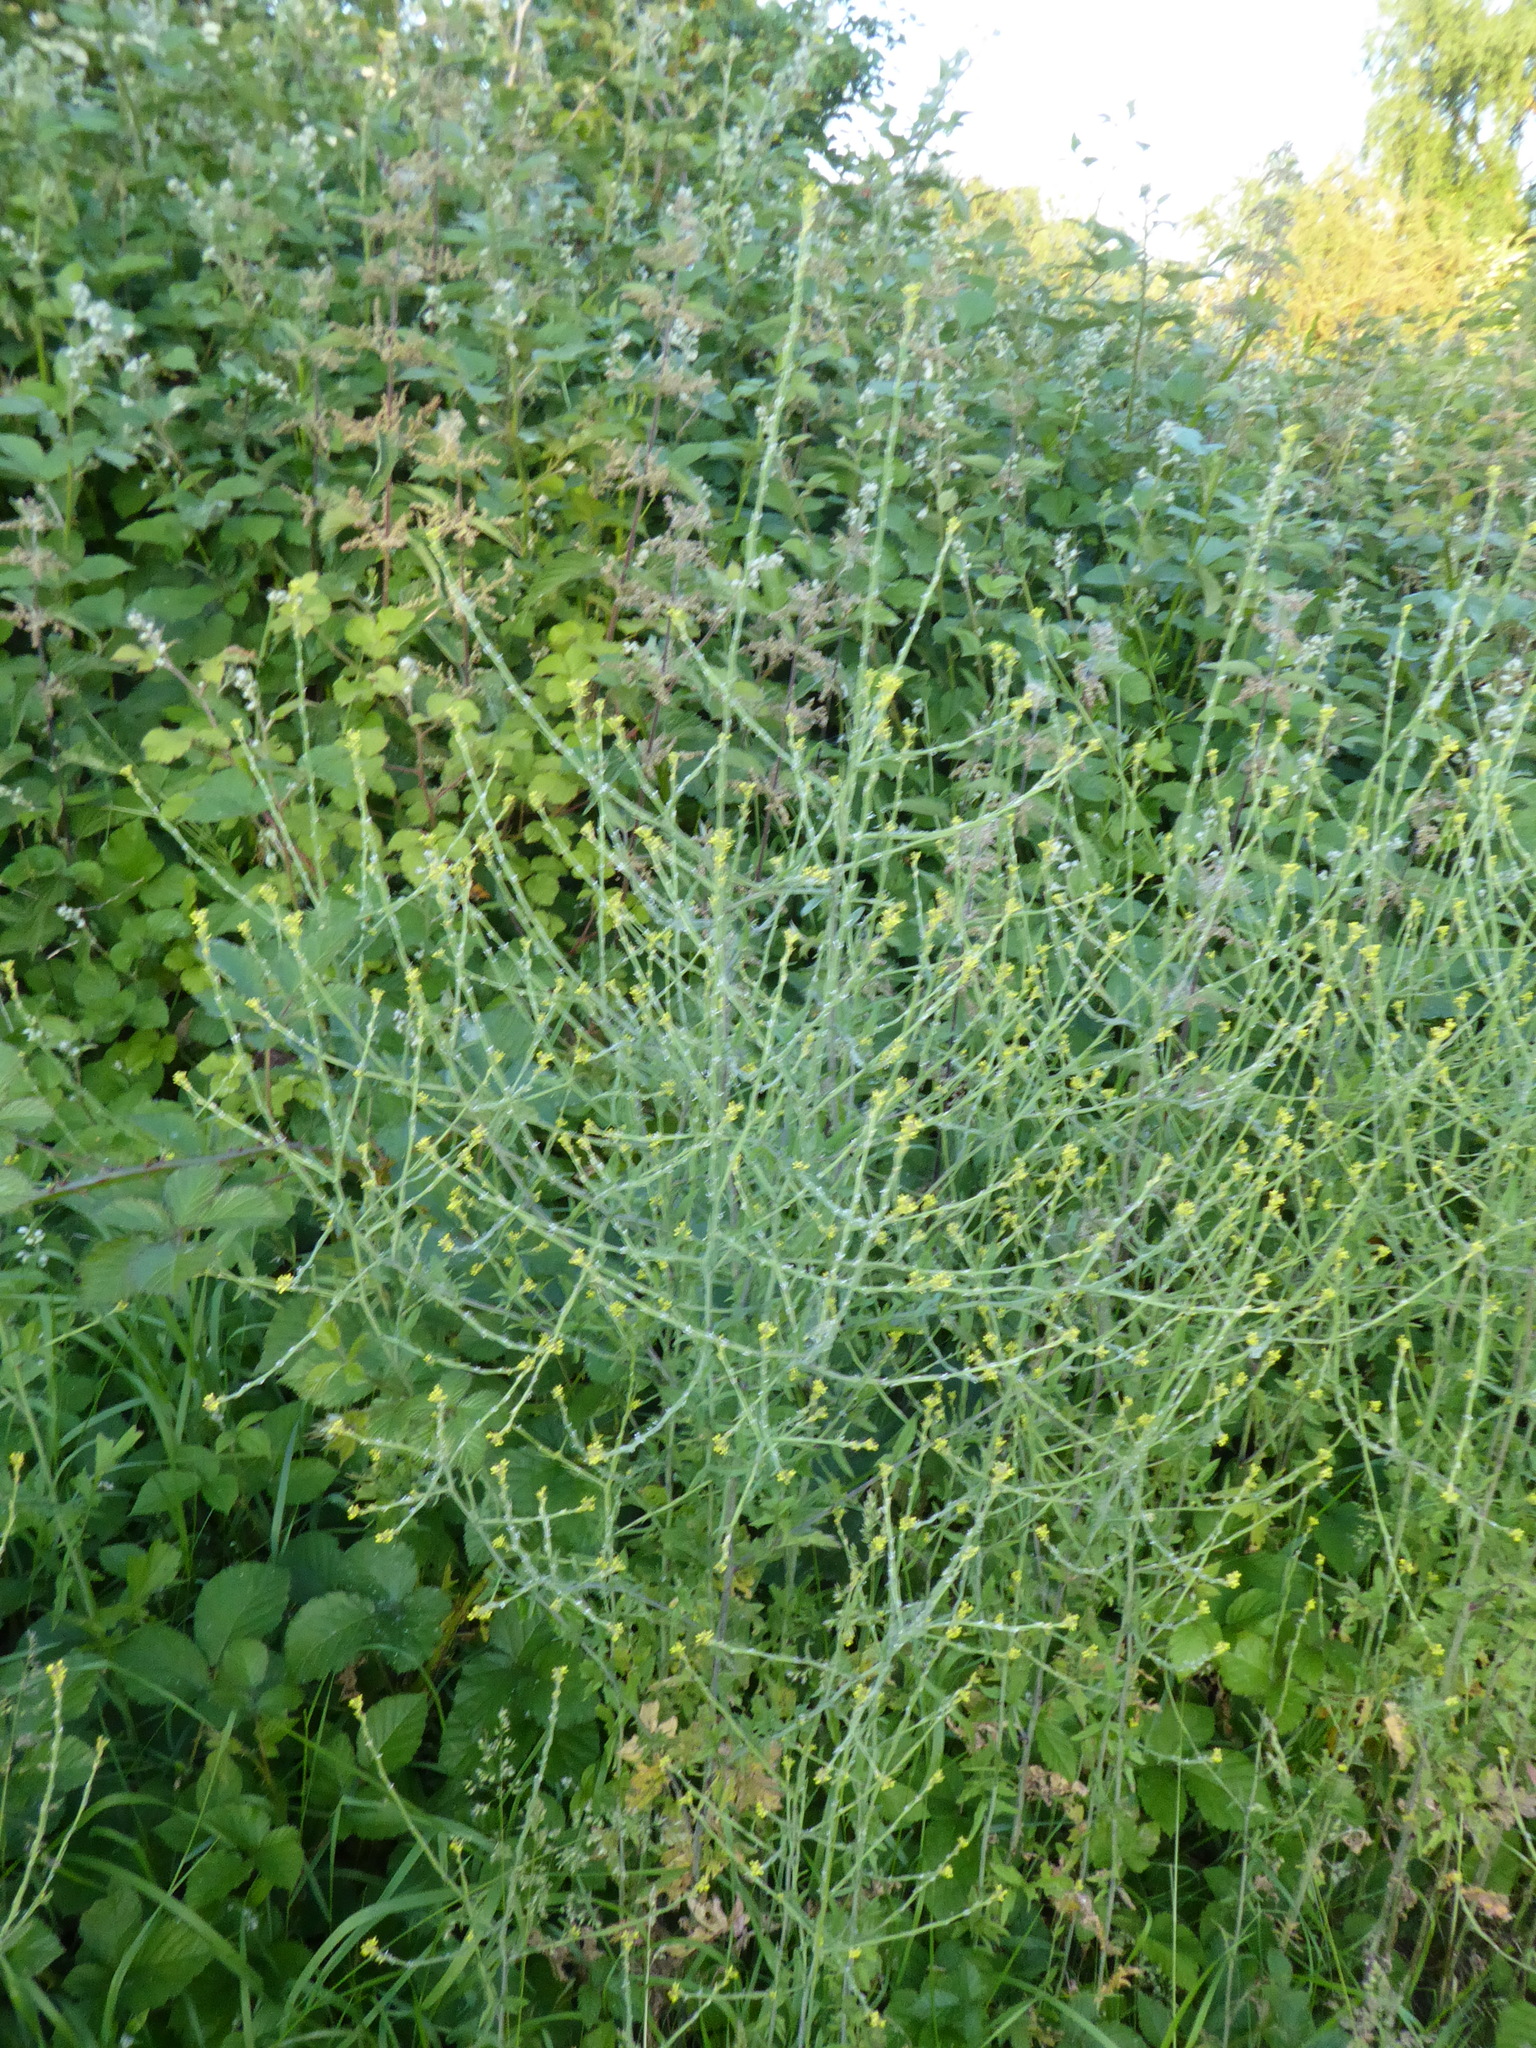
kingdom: Plantae
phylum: Tracheophyta
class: Magnoliopsida
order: Brassicales
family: Brassicaceae
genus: Sisymbrium
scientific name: Sisymbrium officinale
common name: Hedge mustard
